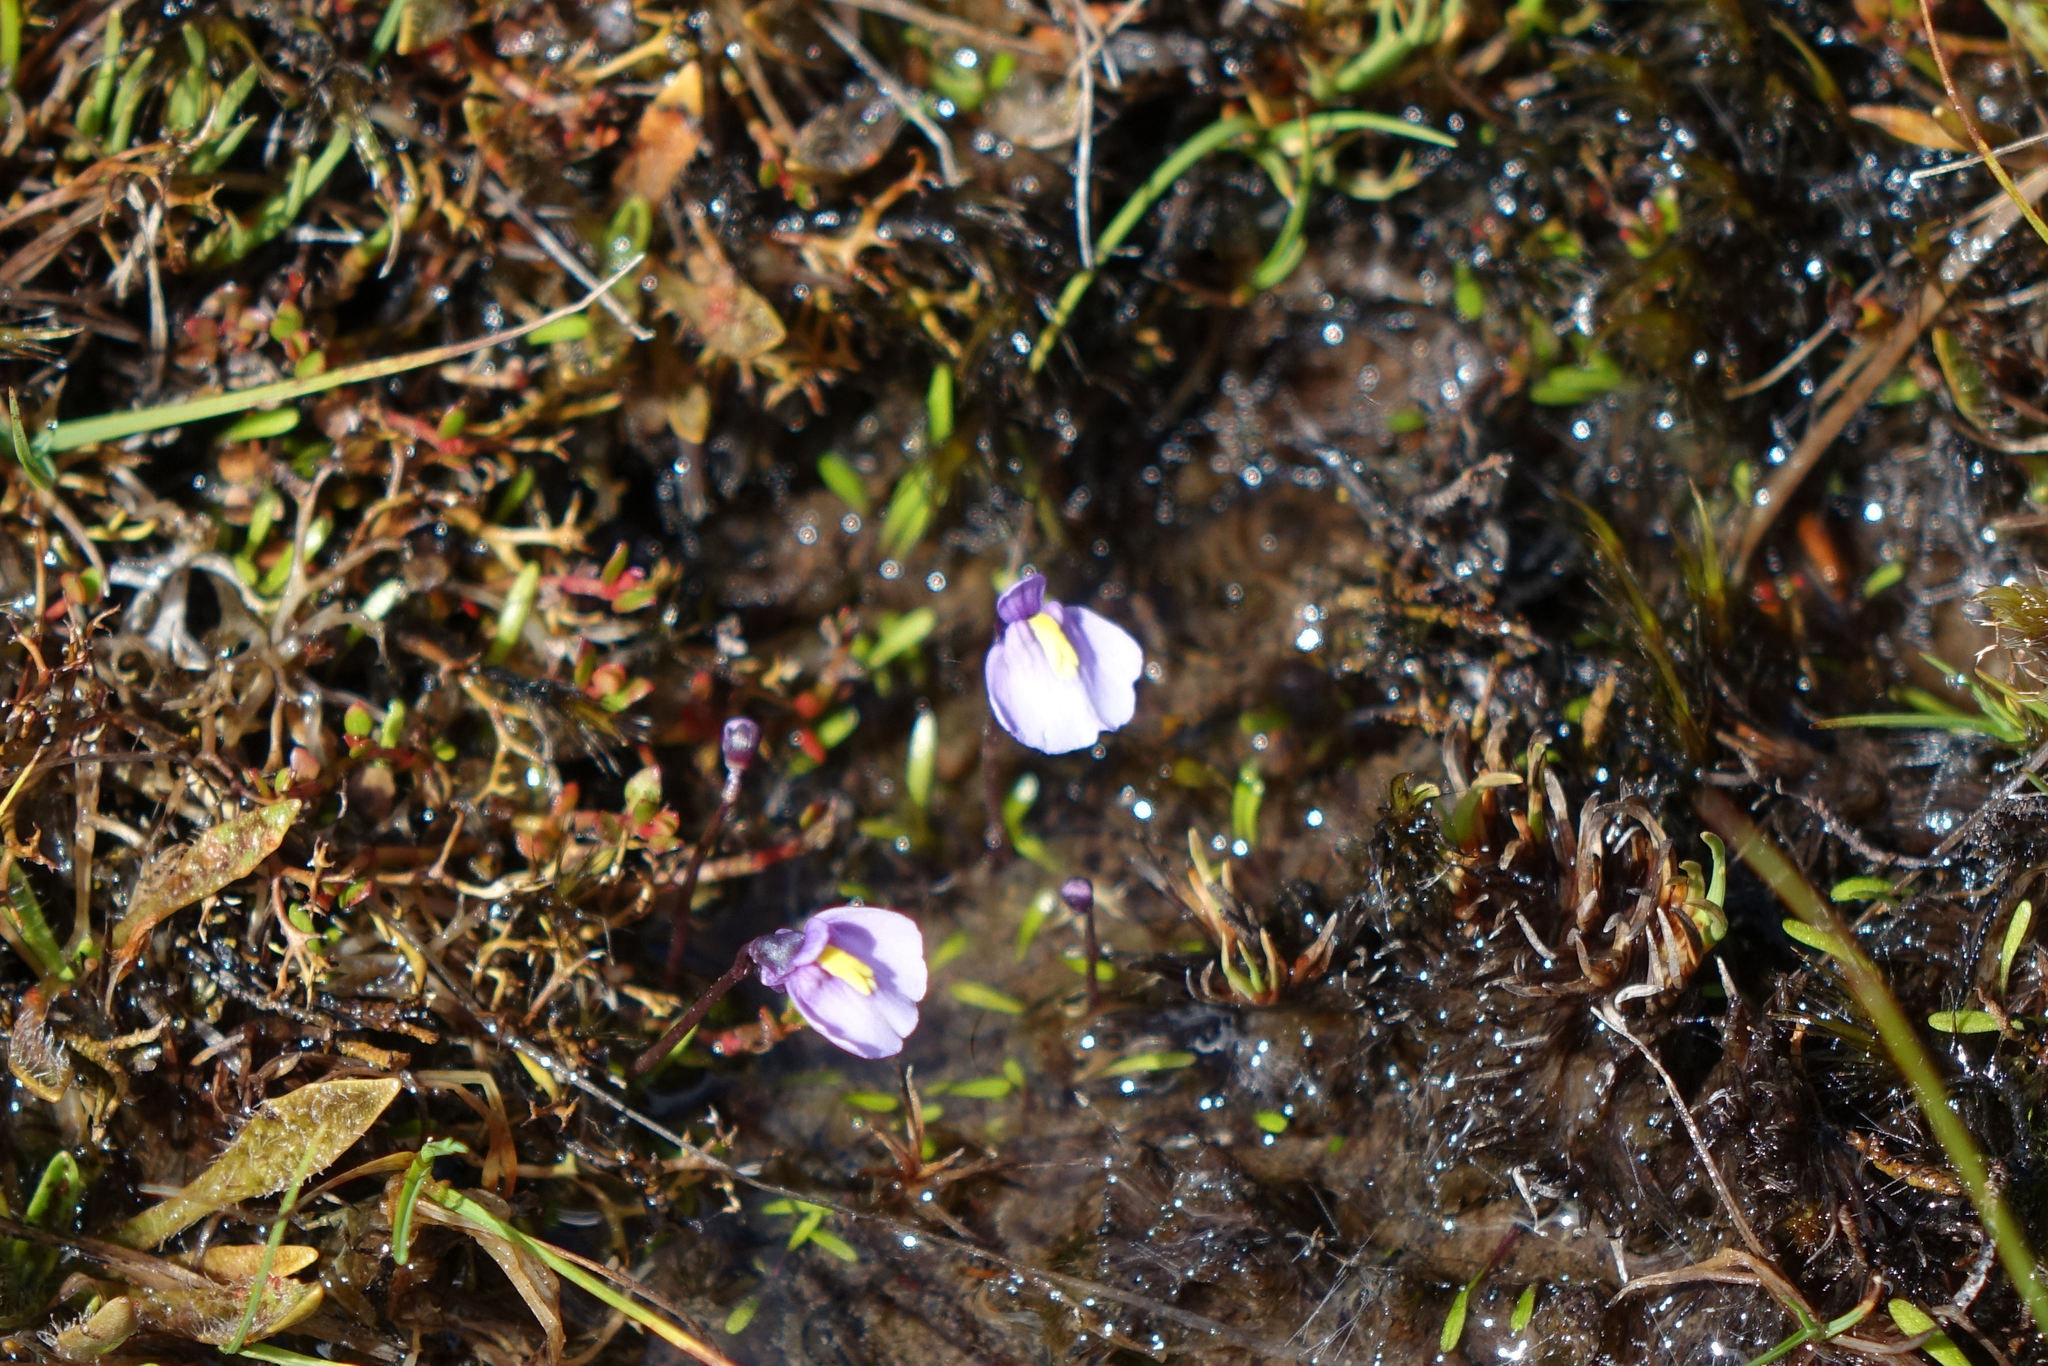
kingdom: Plantae
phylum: Tracheophyta
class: Magnoliopsida
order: Lamiales
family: Lentibulariaceae
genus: Utricularia
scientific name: Utricularia dichotoma
